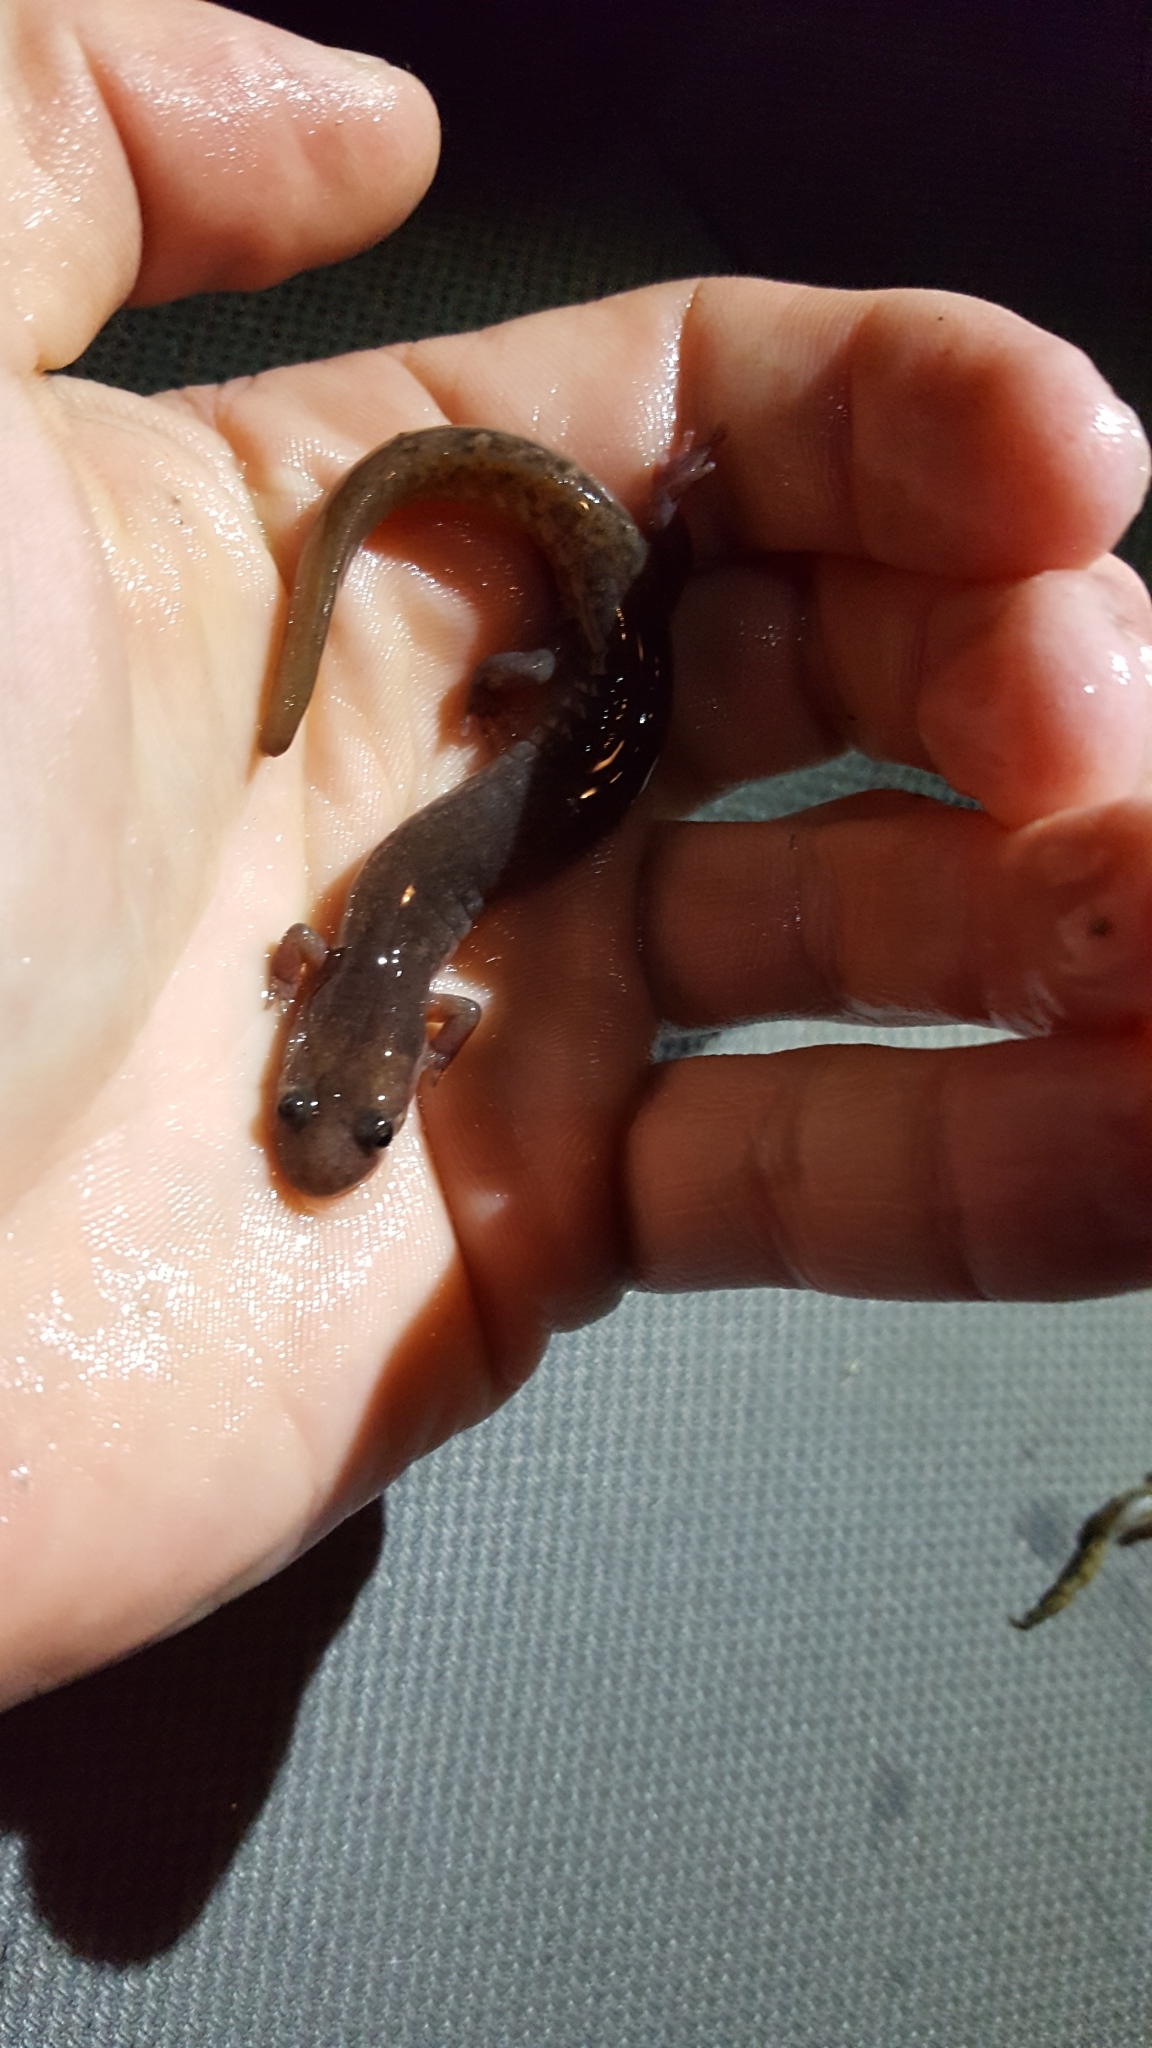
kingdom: Animalia
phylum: Chordata
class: Amphibia
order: Caudata
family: Plethodontidae
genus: Desmognathus
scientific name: Desmognathus brimleyorum
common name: Ouachita dusky salamander
